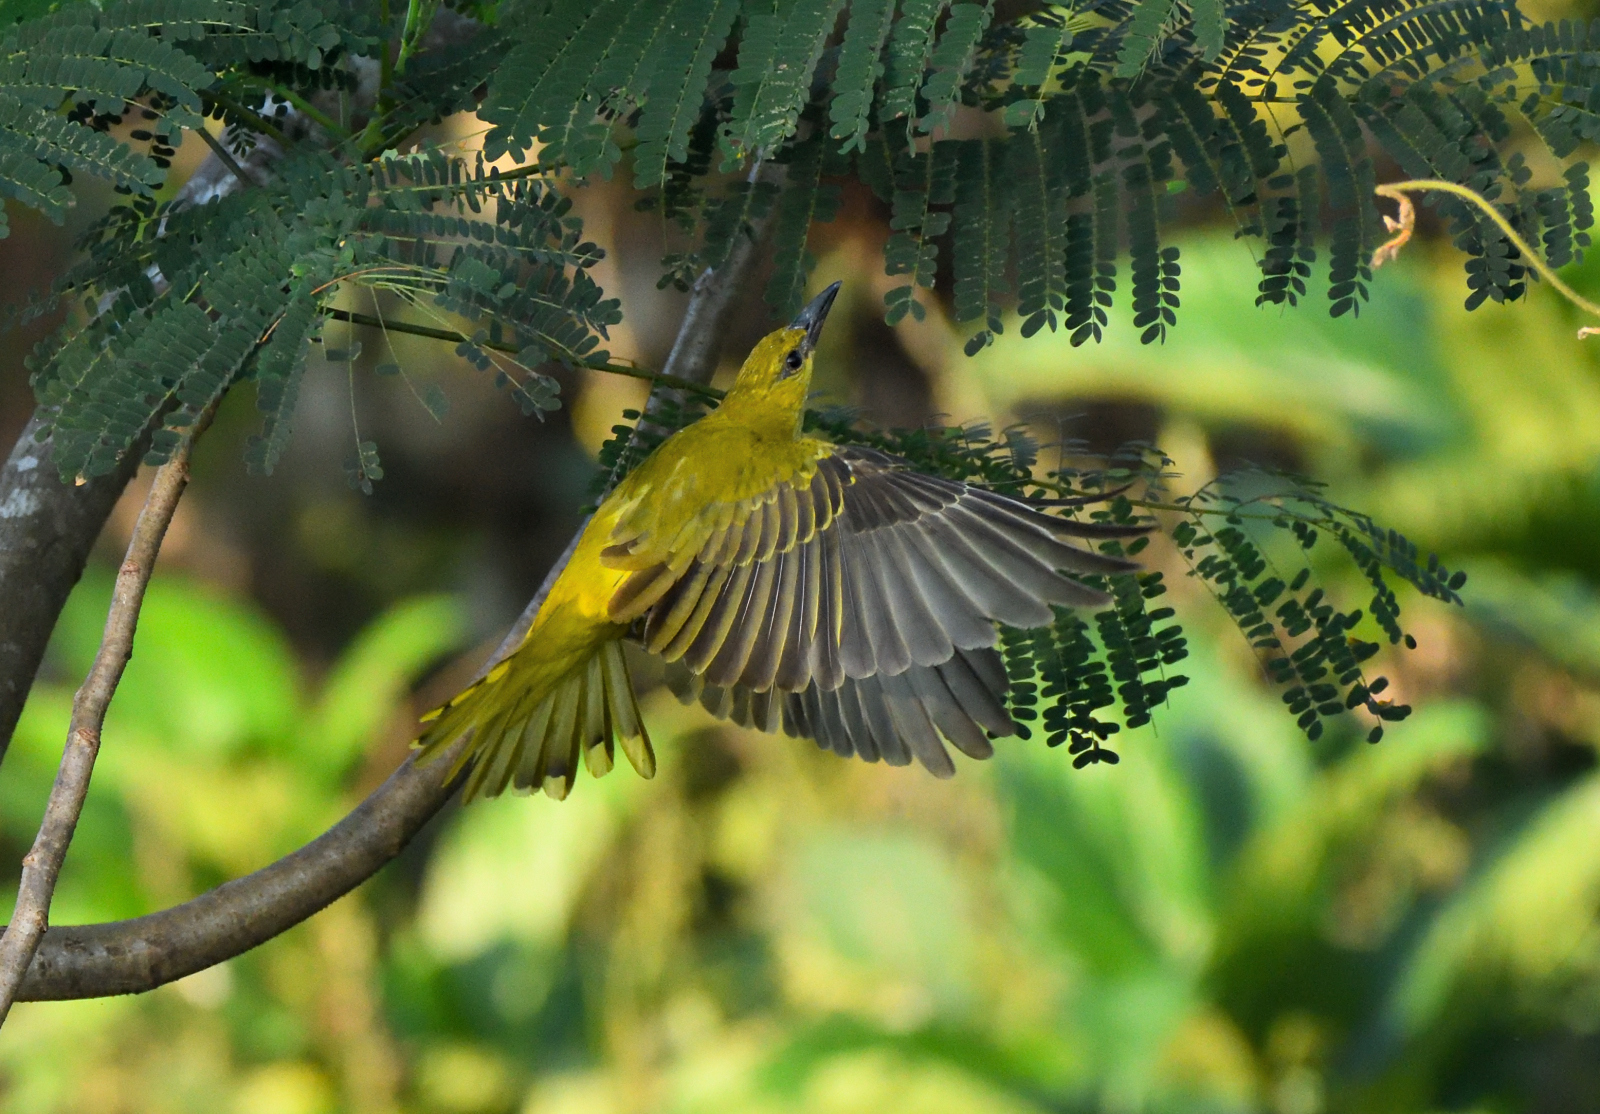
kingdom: Animalia
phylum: Chordata
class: Aves
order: Passeriformes
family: Oriolidae
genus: Oriolus
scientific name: Oriolus kundoo
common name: Indian golden oriole
